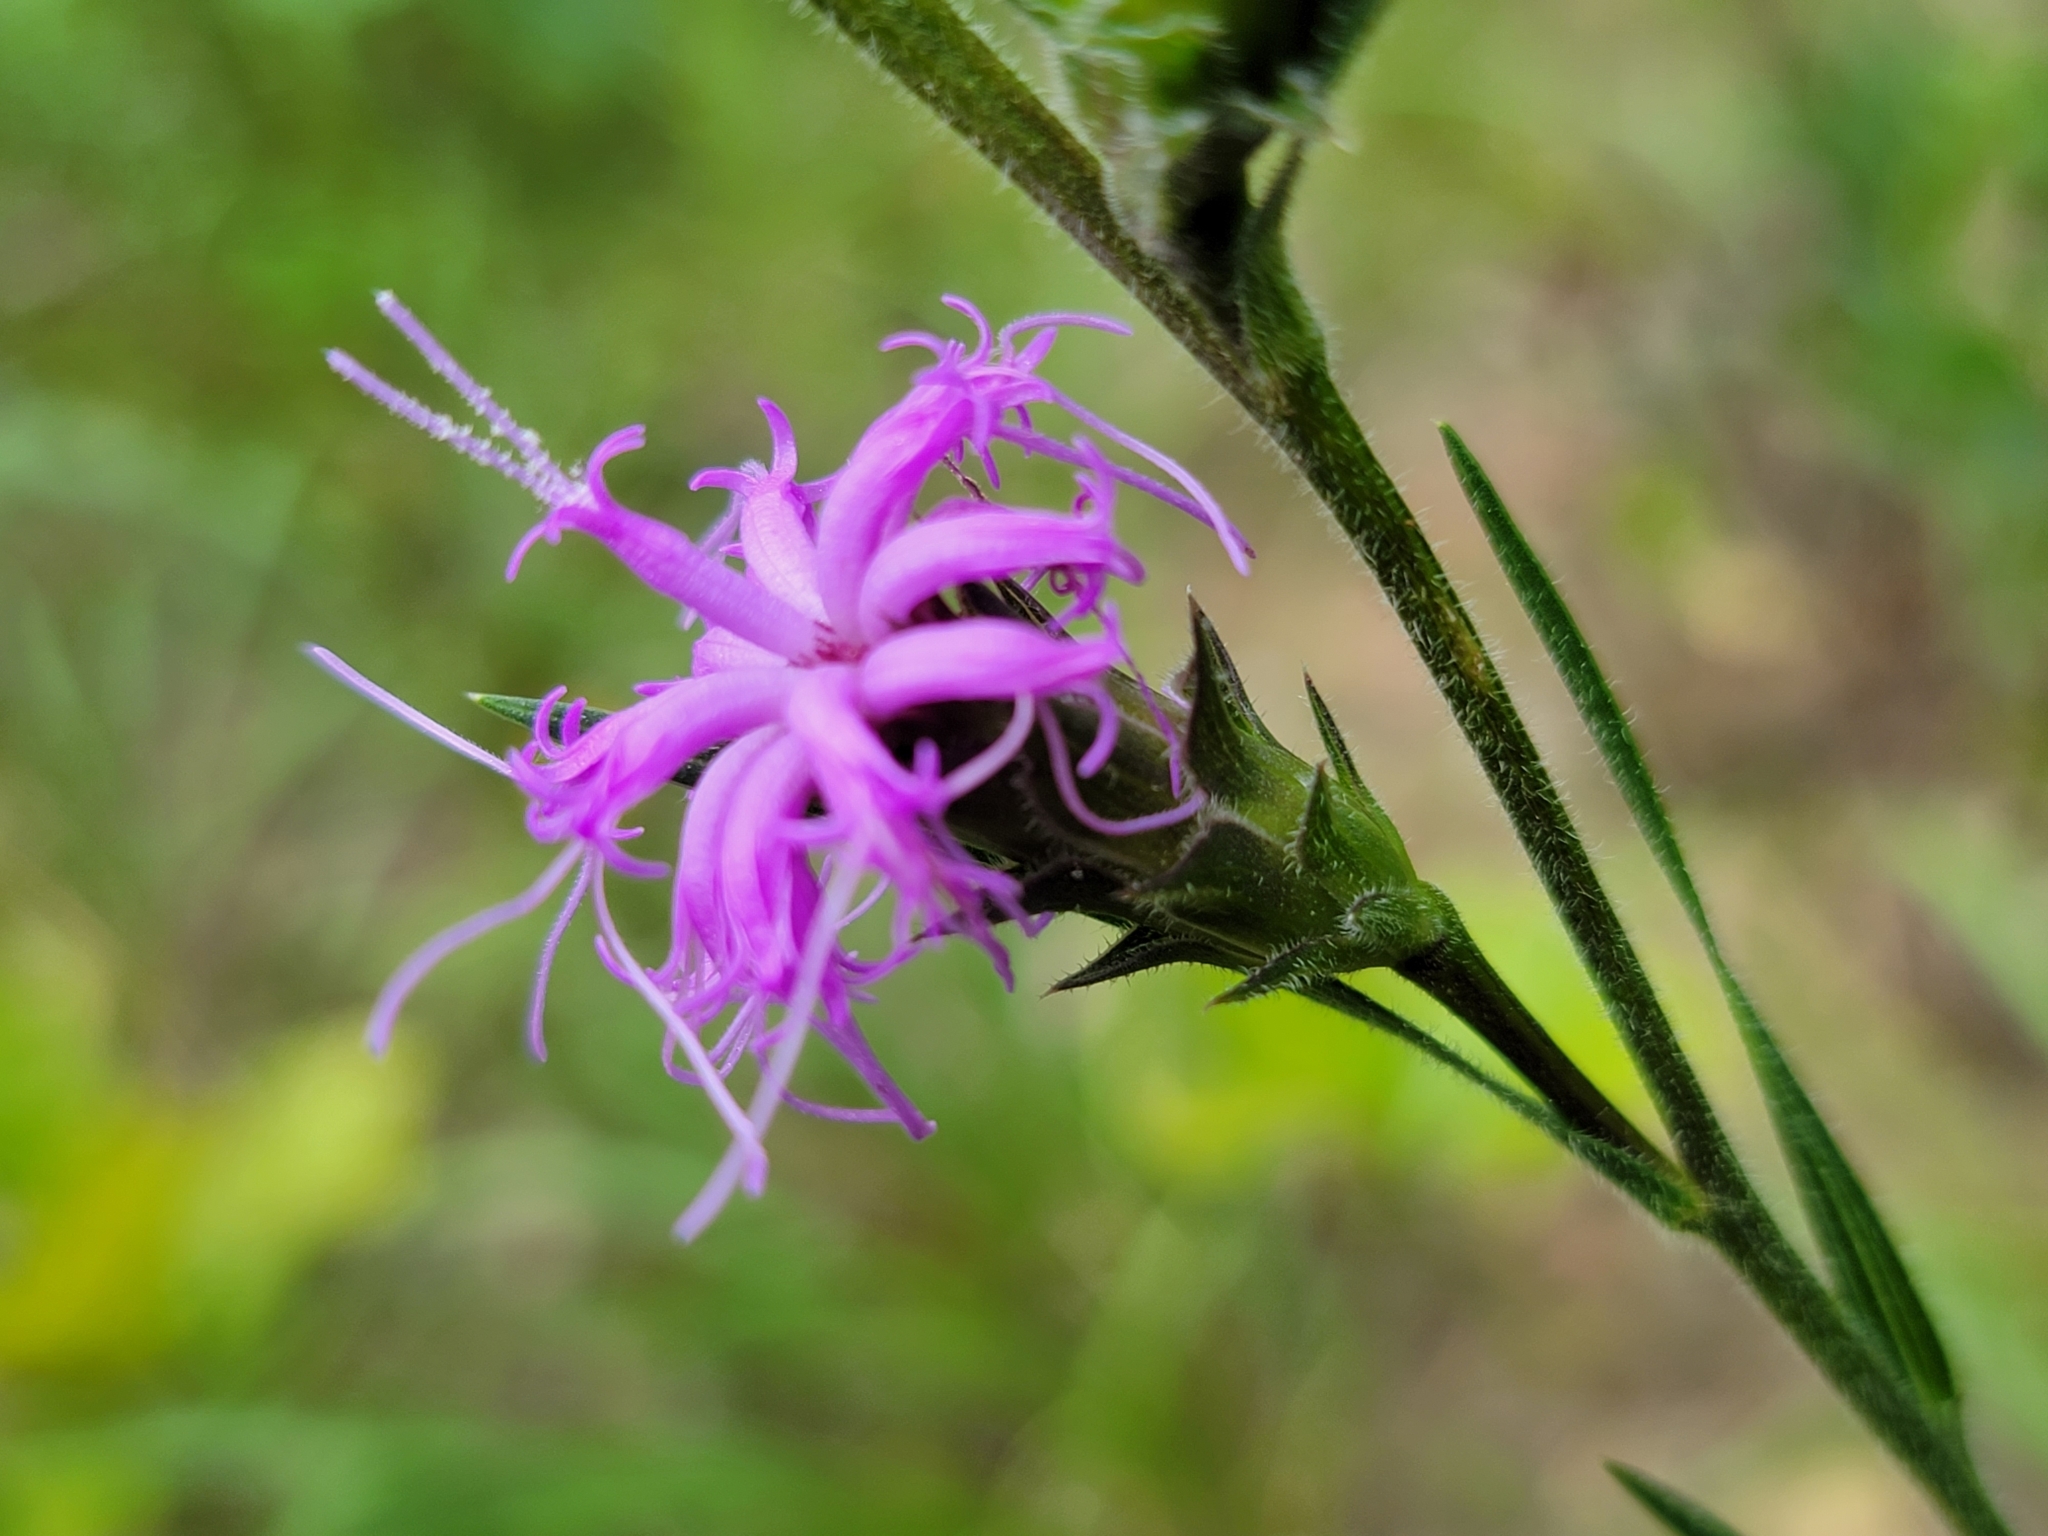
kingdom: Plantae
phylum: Tracheophyta
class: Magnoliopsida
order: Asterales
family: Asteraceae
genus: Liatris
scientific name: Liatris squarrosa
